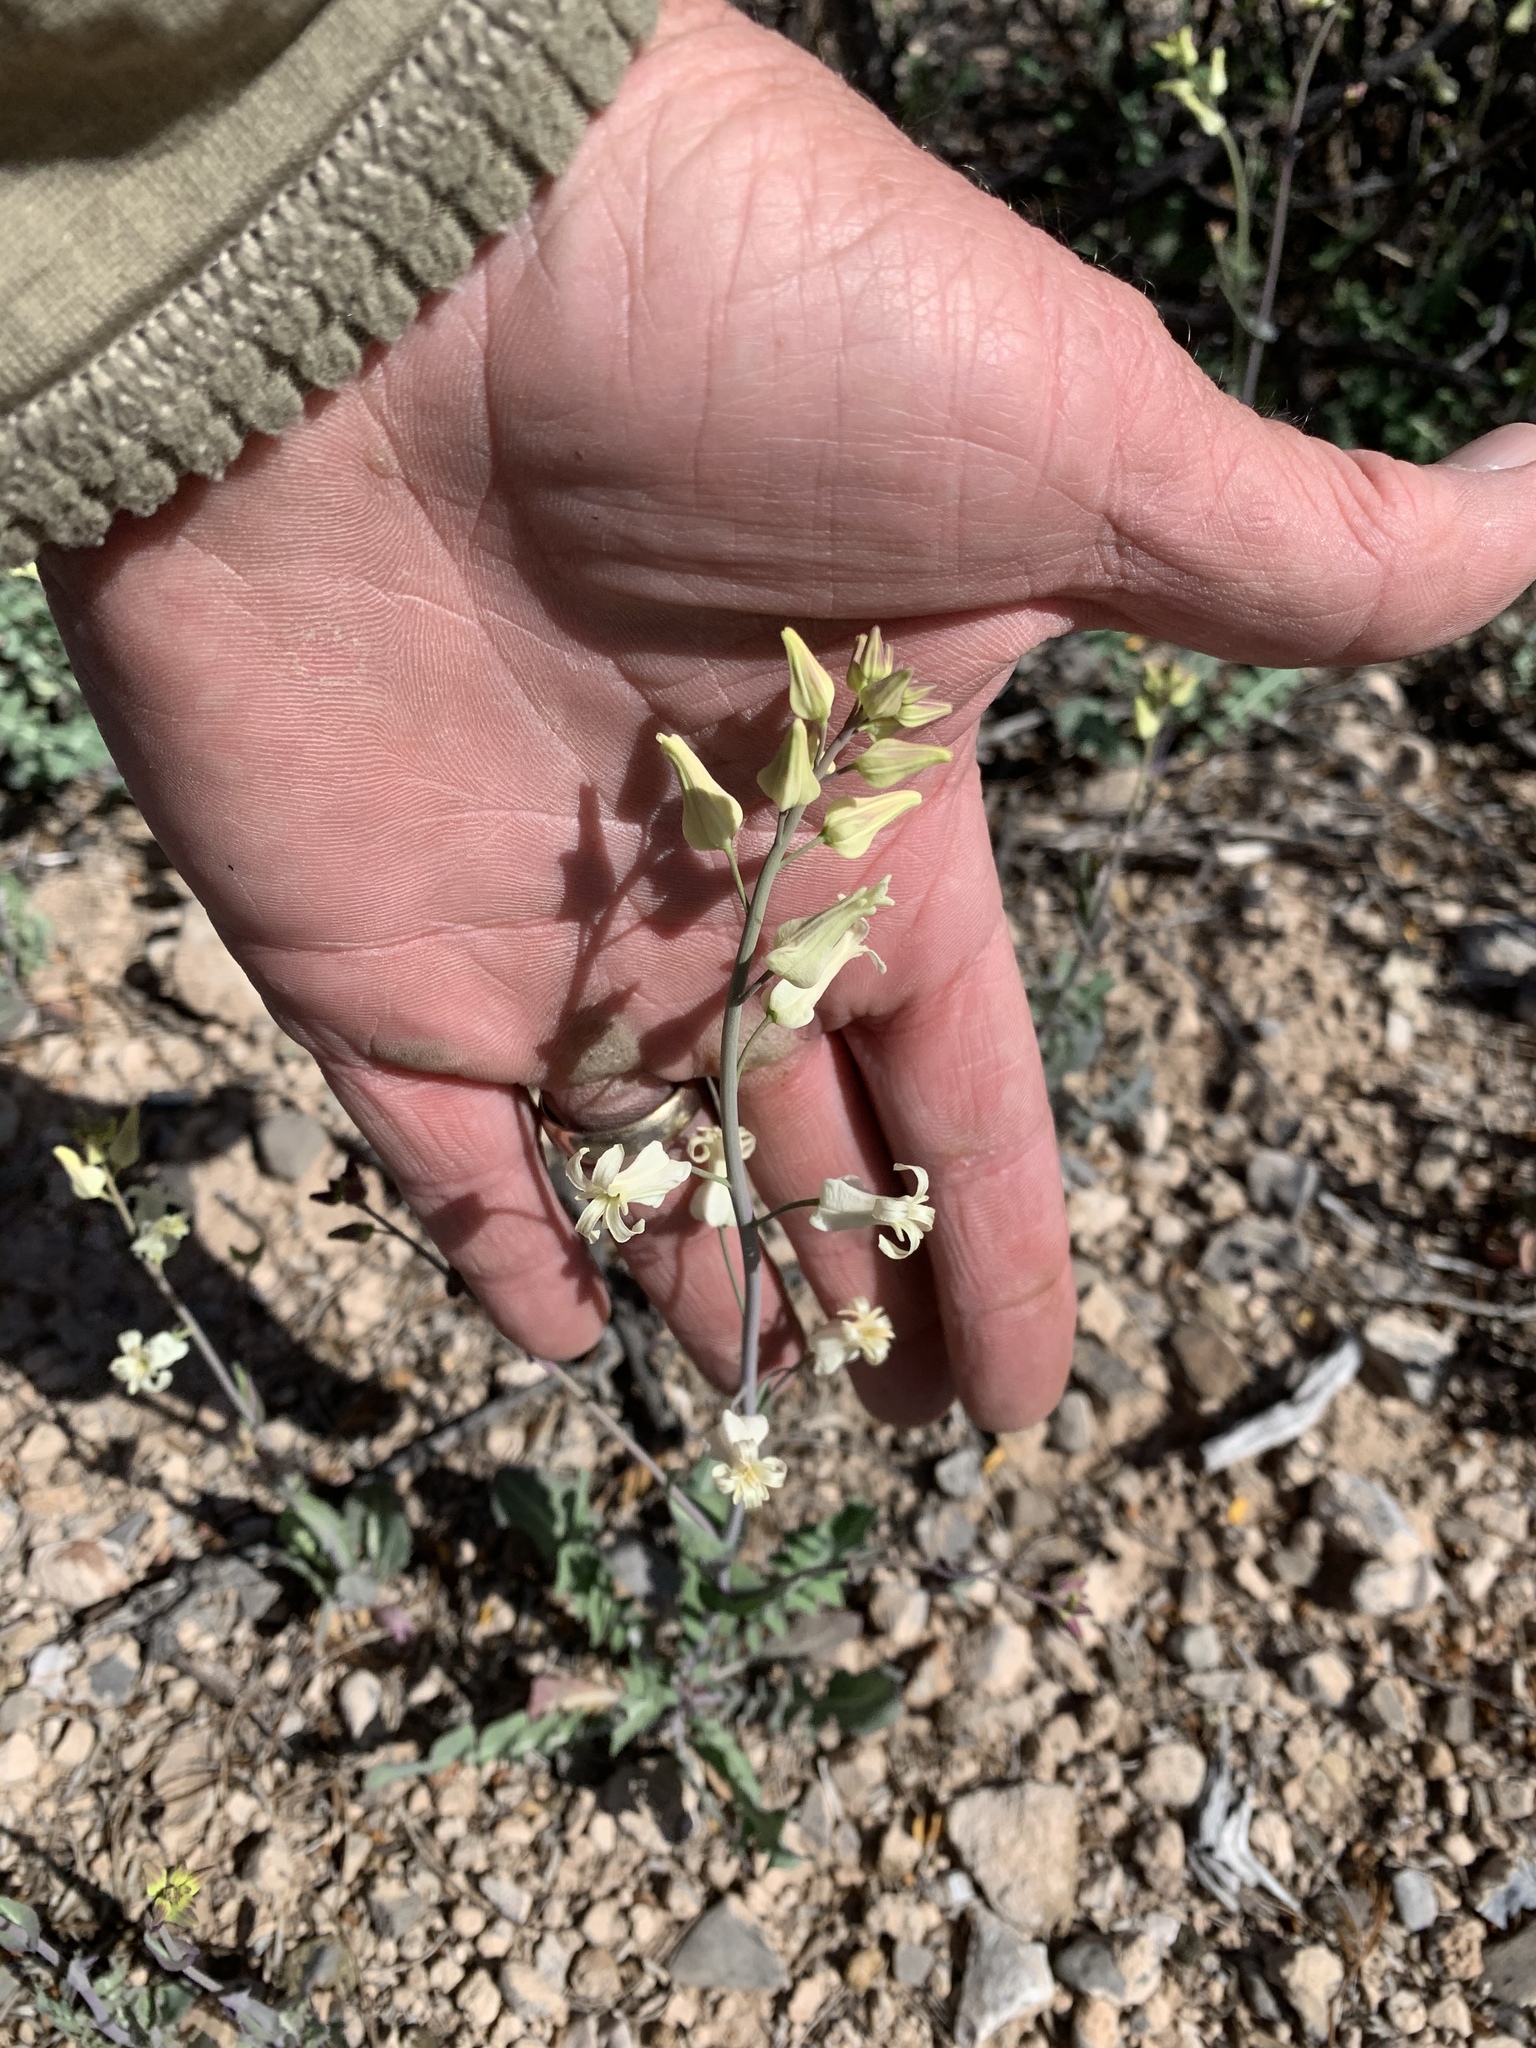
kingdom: Plantae
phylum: Tracheophyta
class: Magnoliopsida
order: Brassicales
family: Brassicaceae
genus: Streptanthus
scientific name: Streptanthus carinatus
